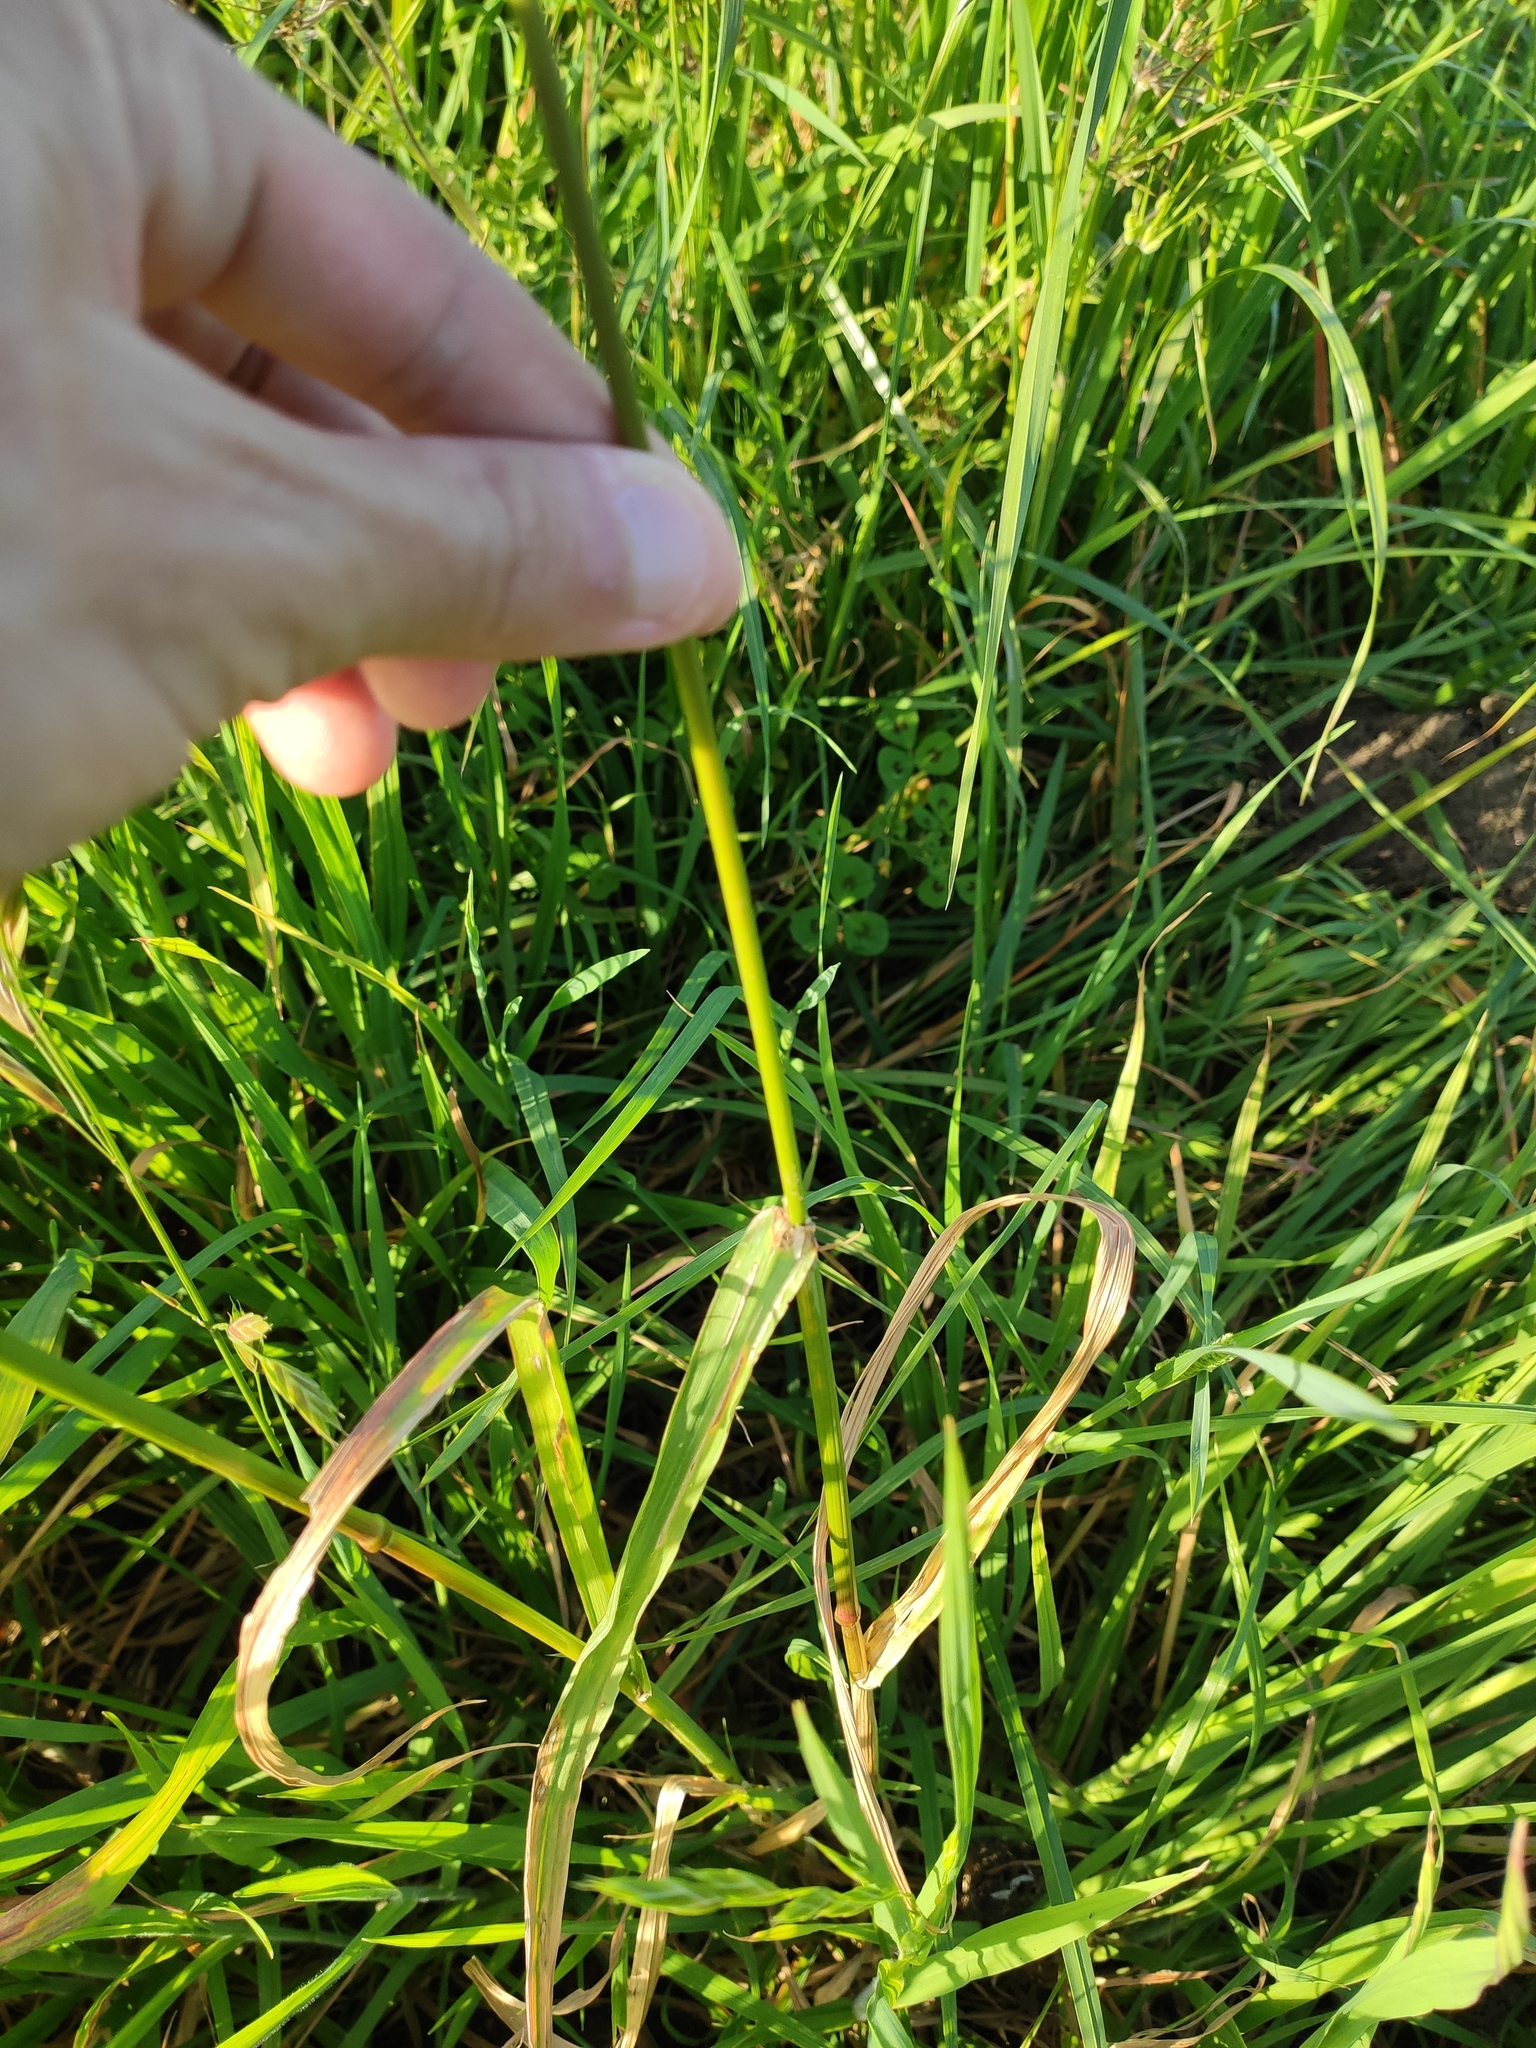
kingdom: Plantae
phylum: Tracheophyta
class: Liliopsida
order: Poales
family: Poaceae
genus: Bromus
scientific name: Bromus catharticus
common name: Rescuegrass
